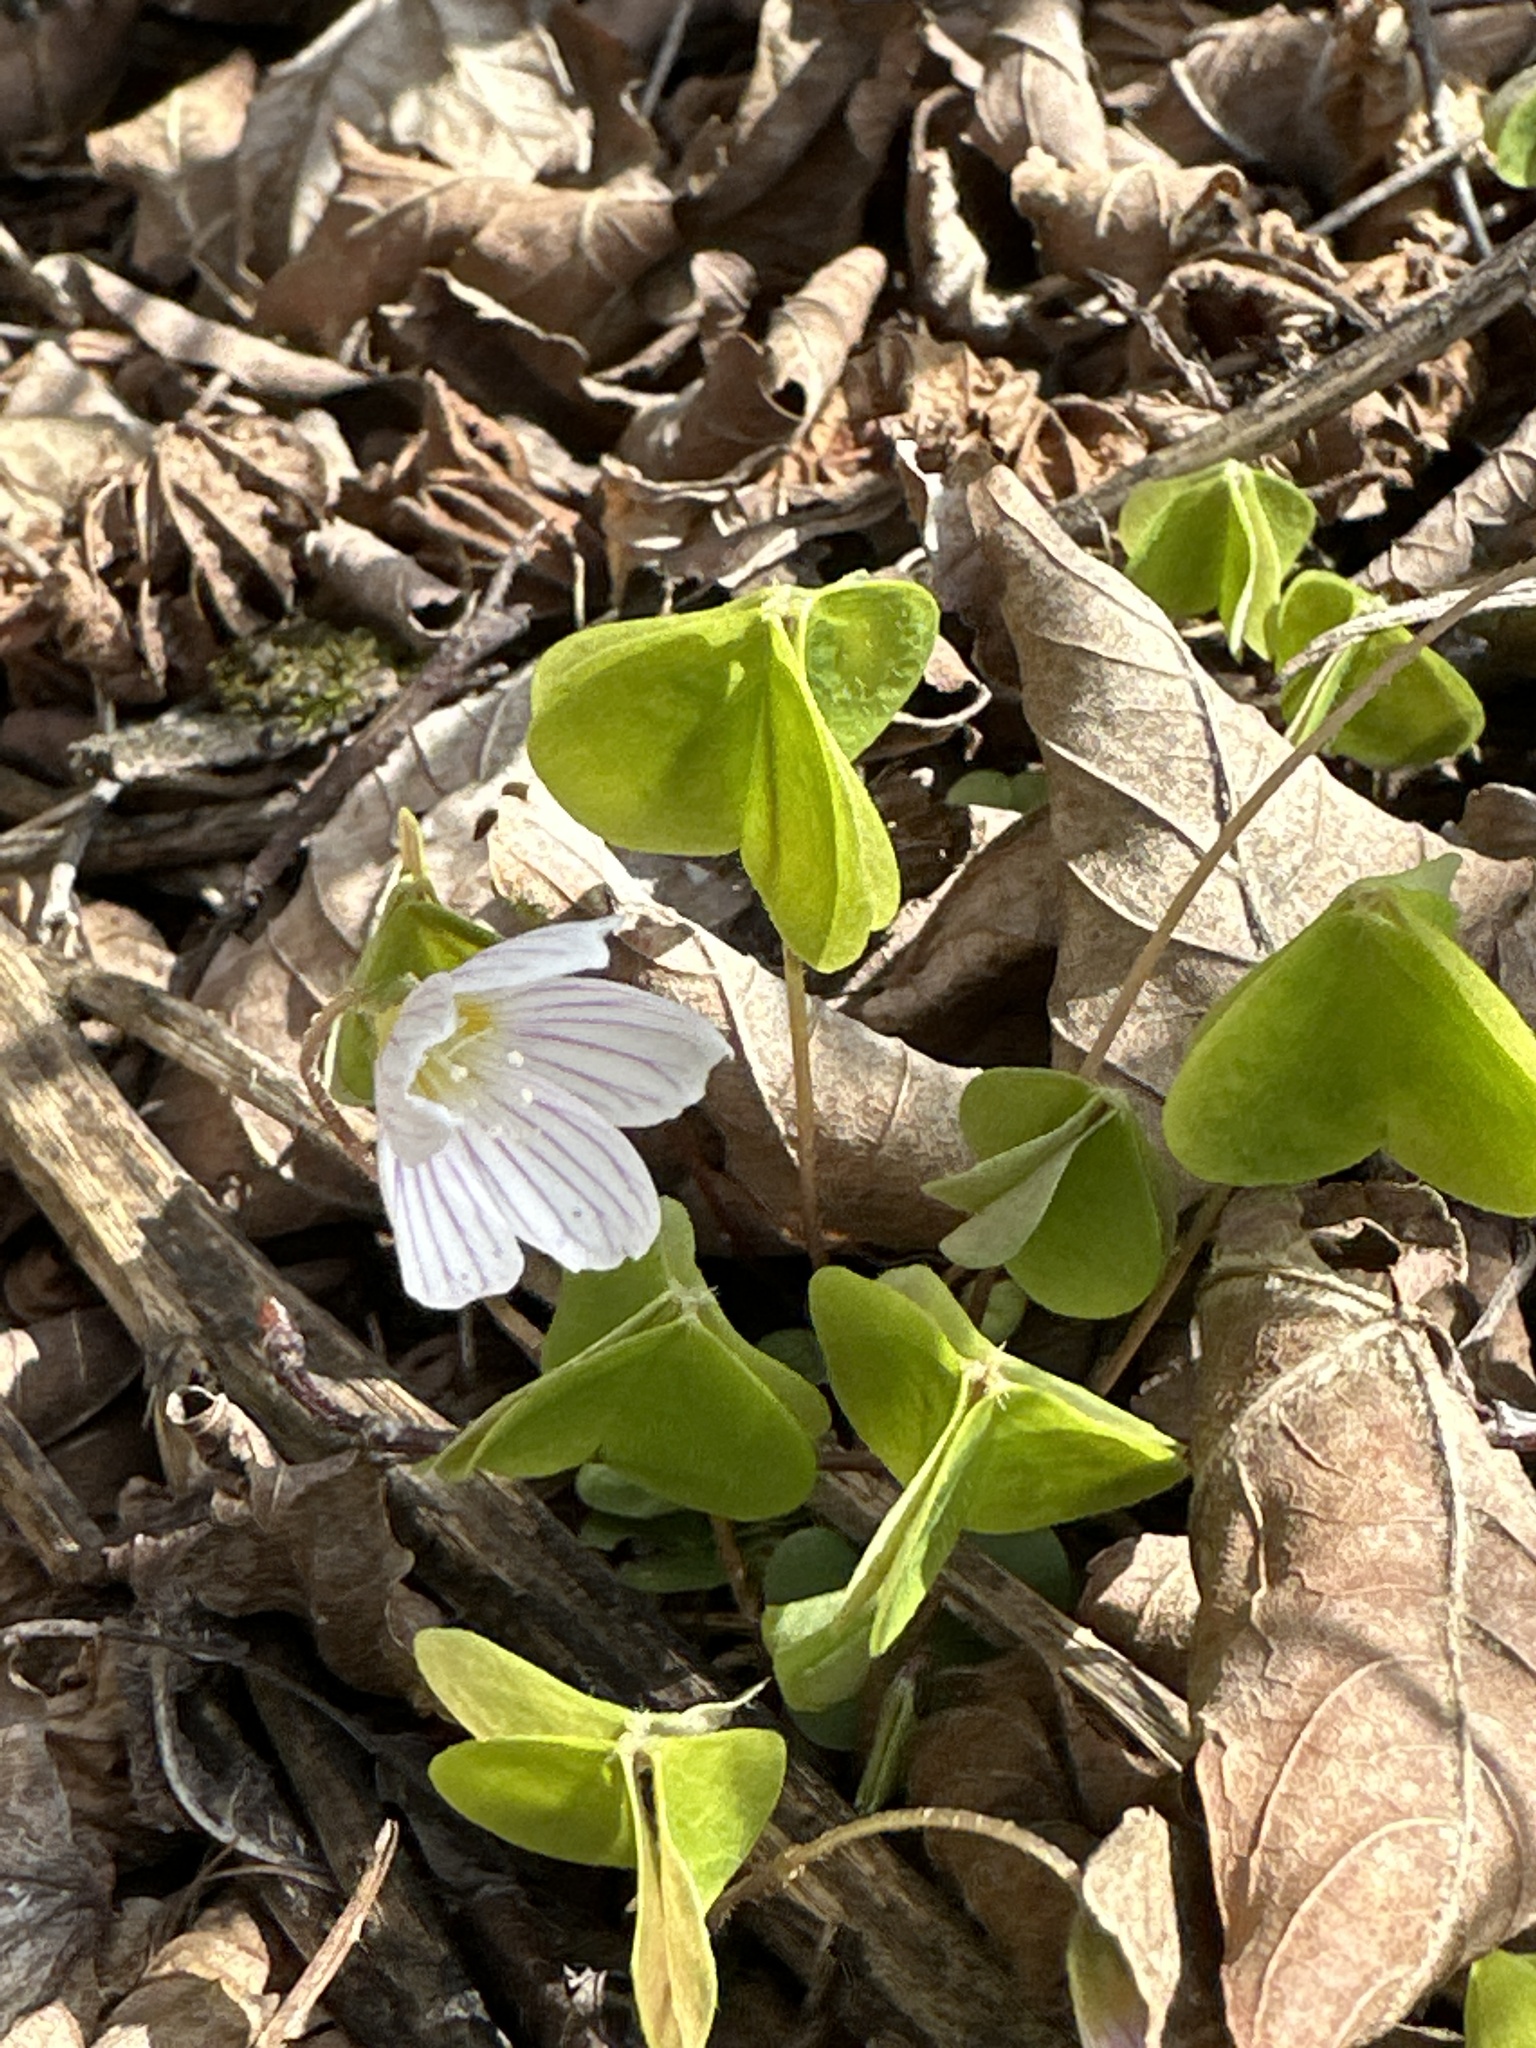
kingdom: Plantae
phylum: Tracheophyta
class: Magnoliopsida
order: Oxalidales
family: Oxalidaceae
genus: Oxalis
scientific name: Oxalis acetosella
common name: Wood-sorrel
